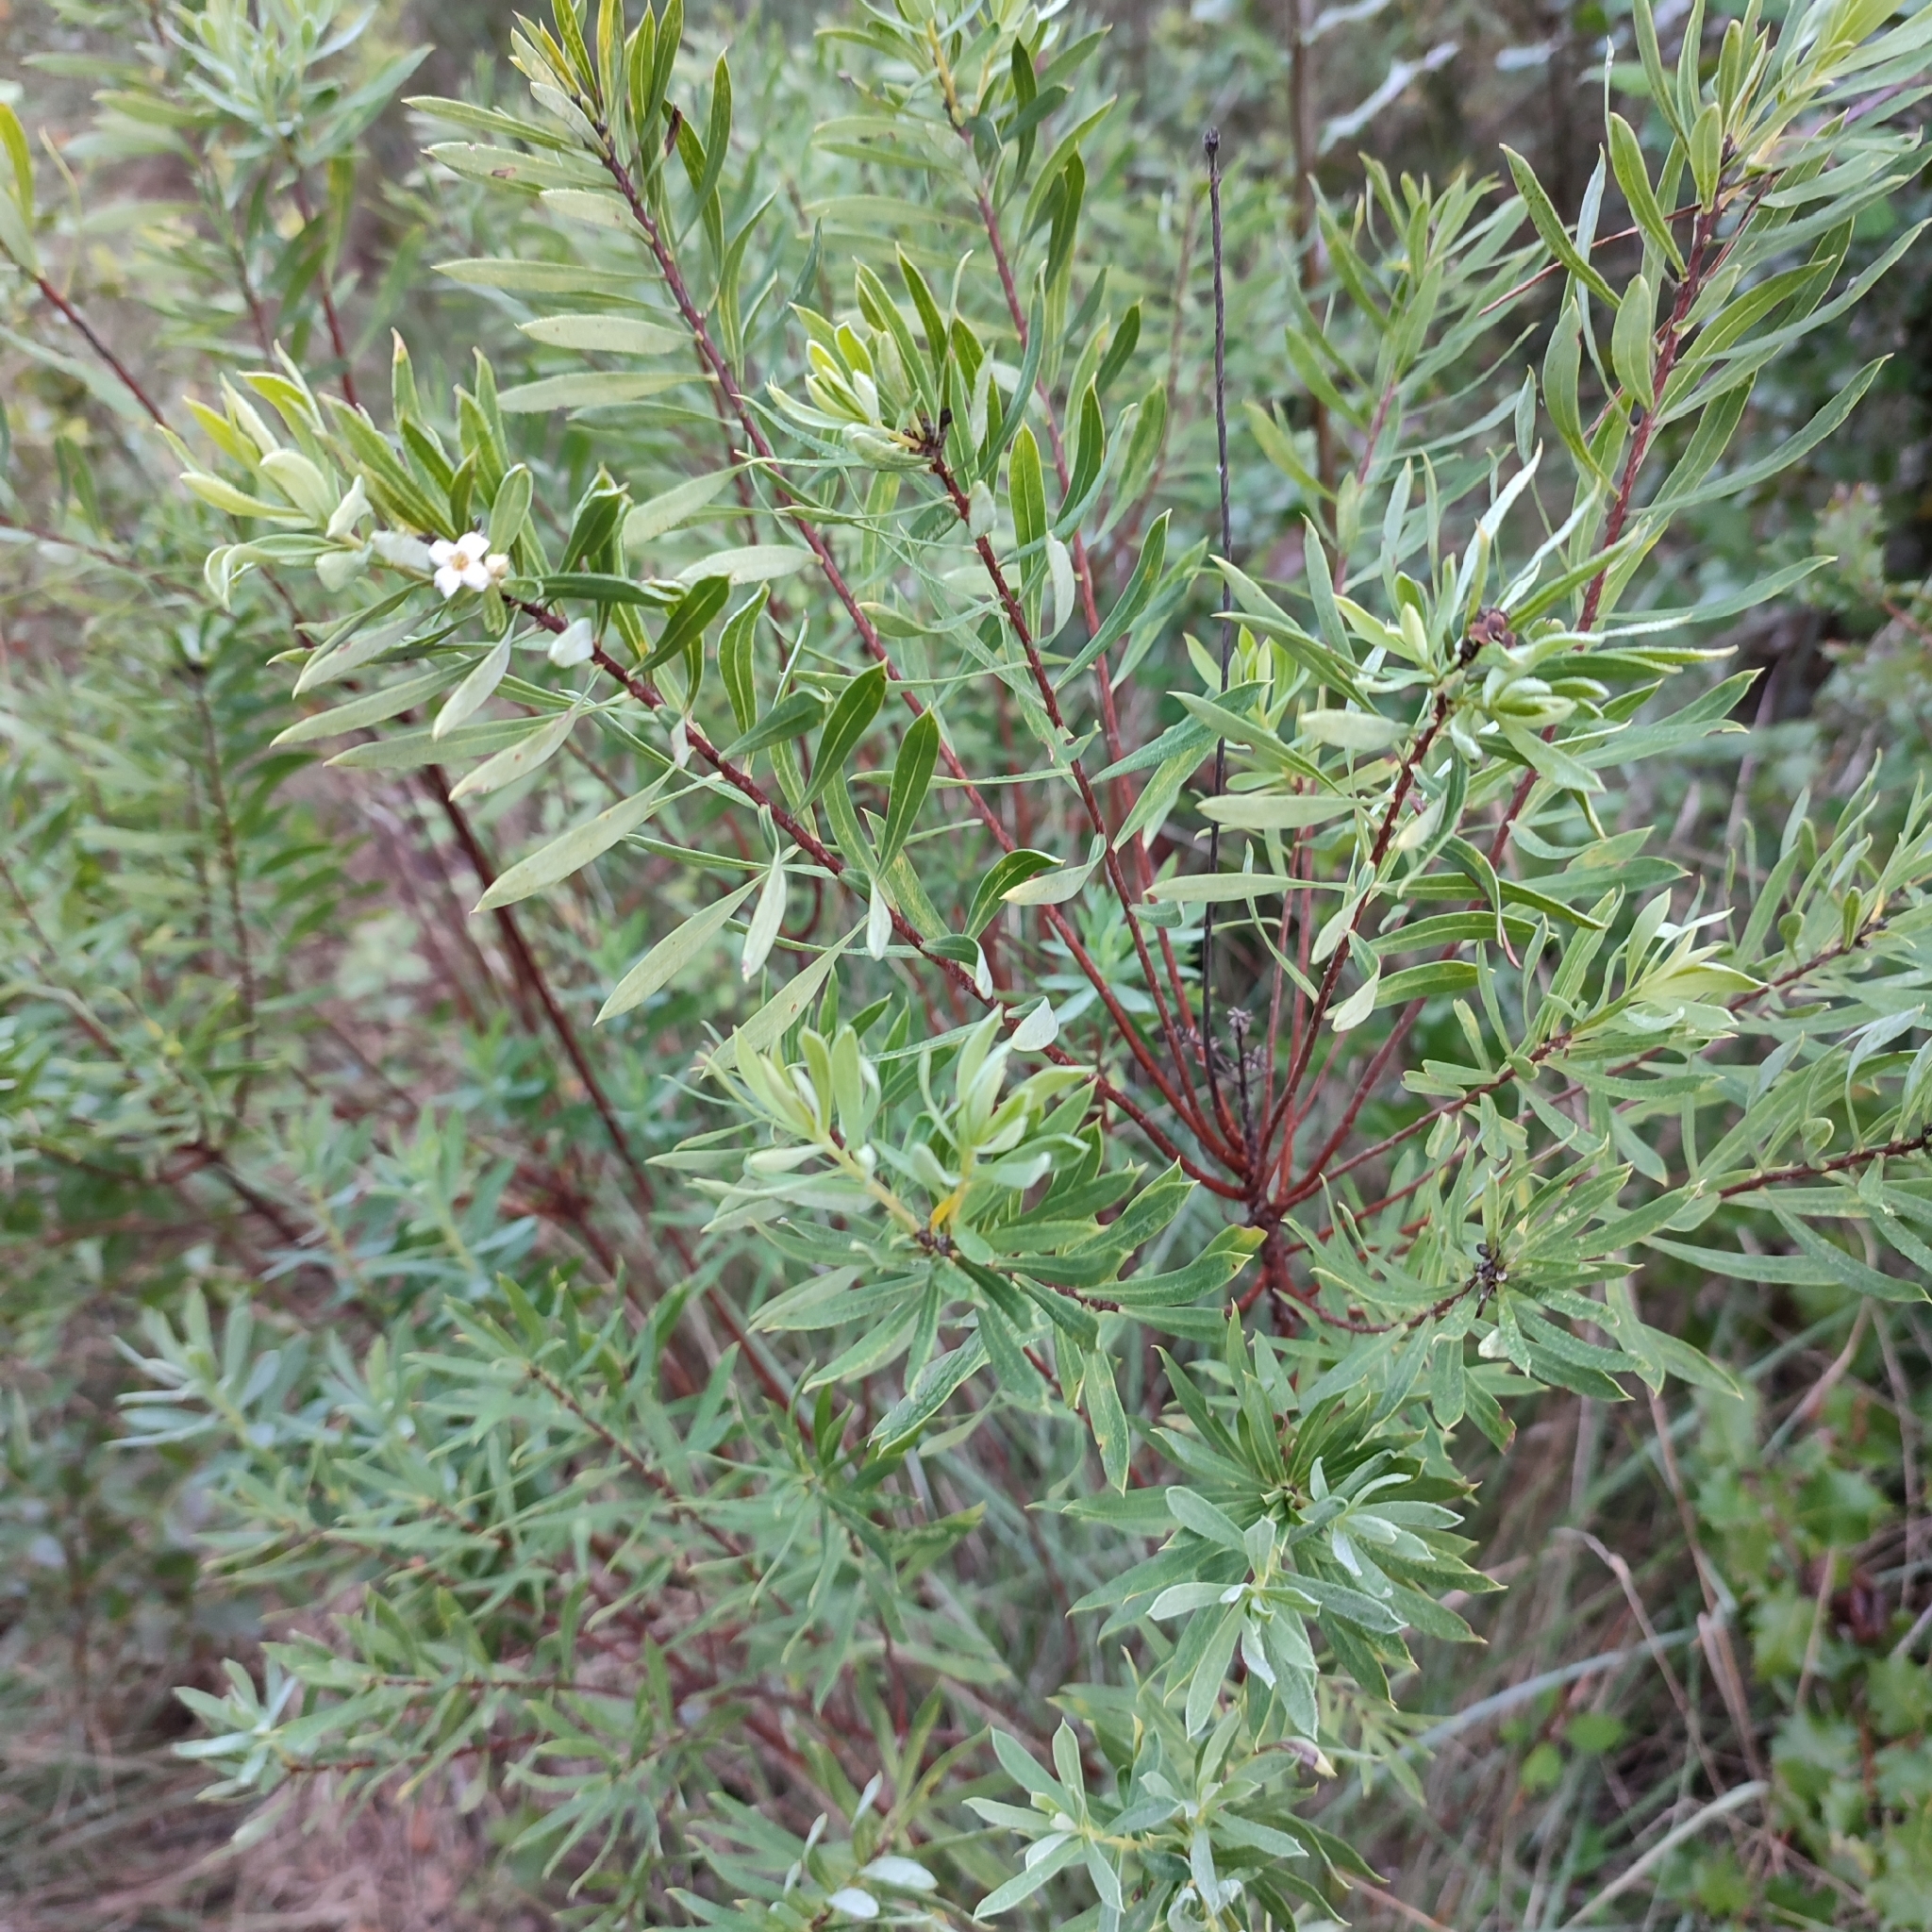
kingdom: Plantae
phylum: Tracheophyta
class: Magnoliopsida
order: Malvales
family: Thymelaeaceae
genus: Daphne
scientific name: Daphne gnidium
